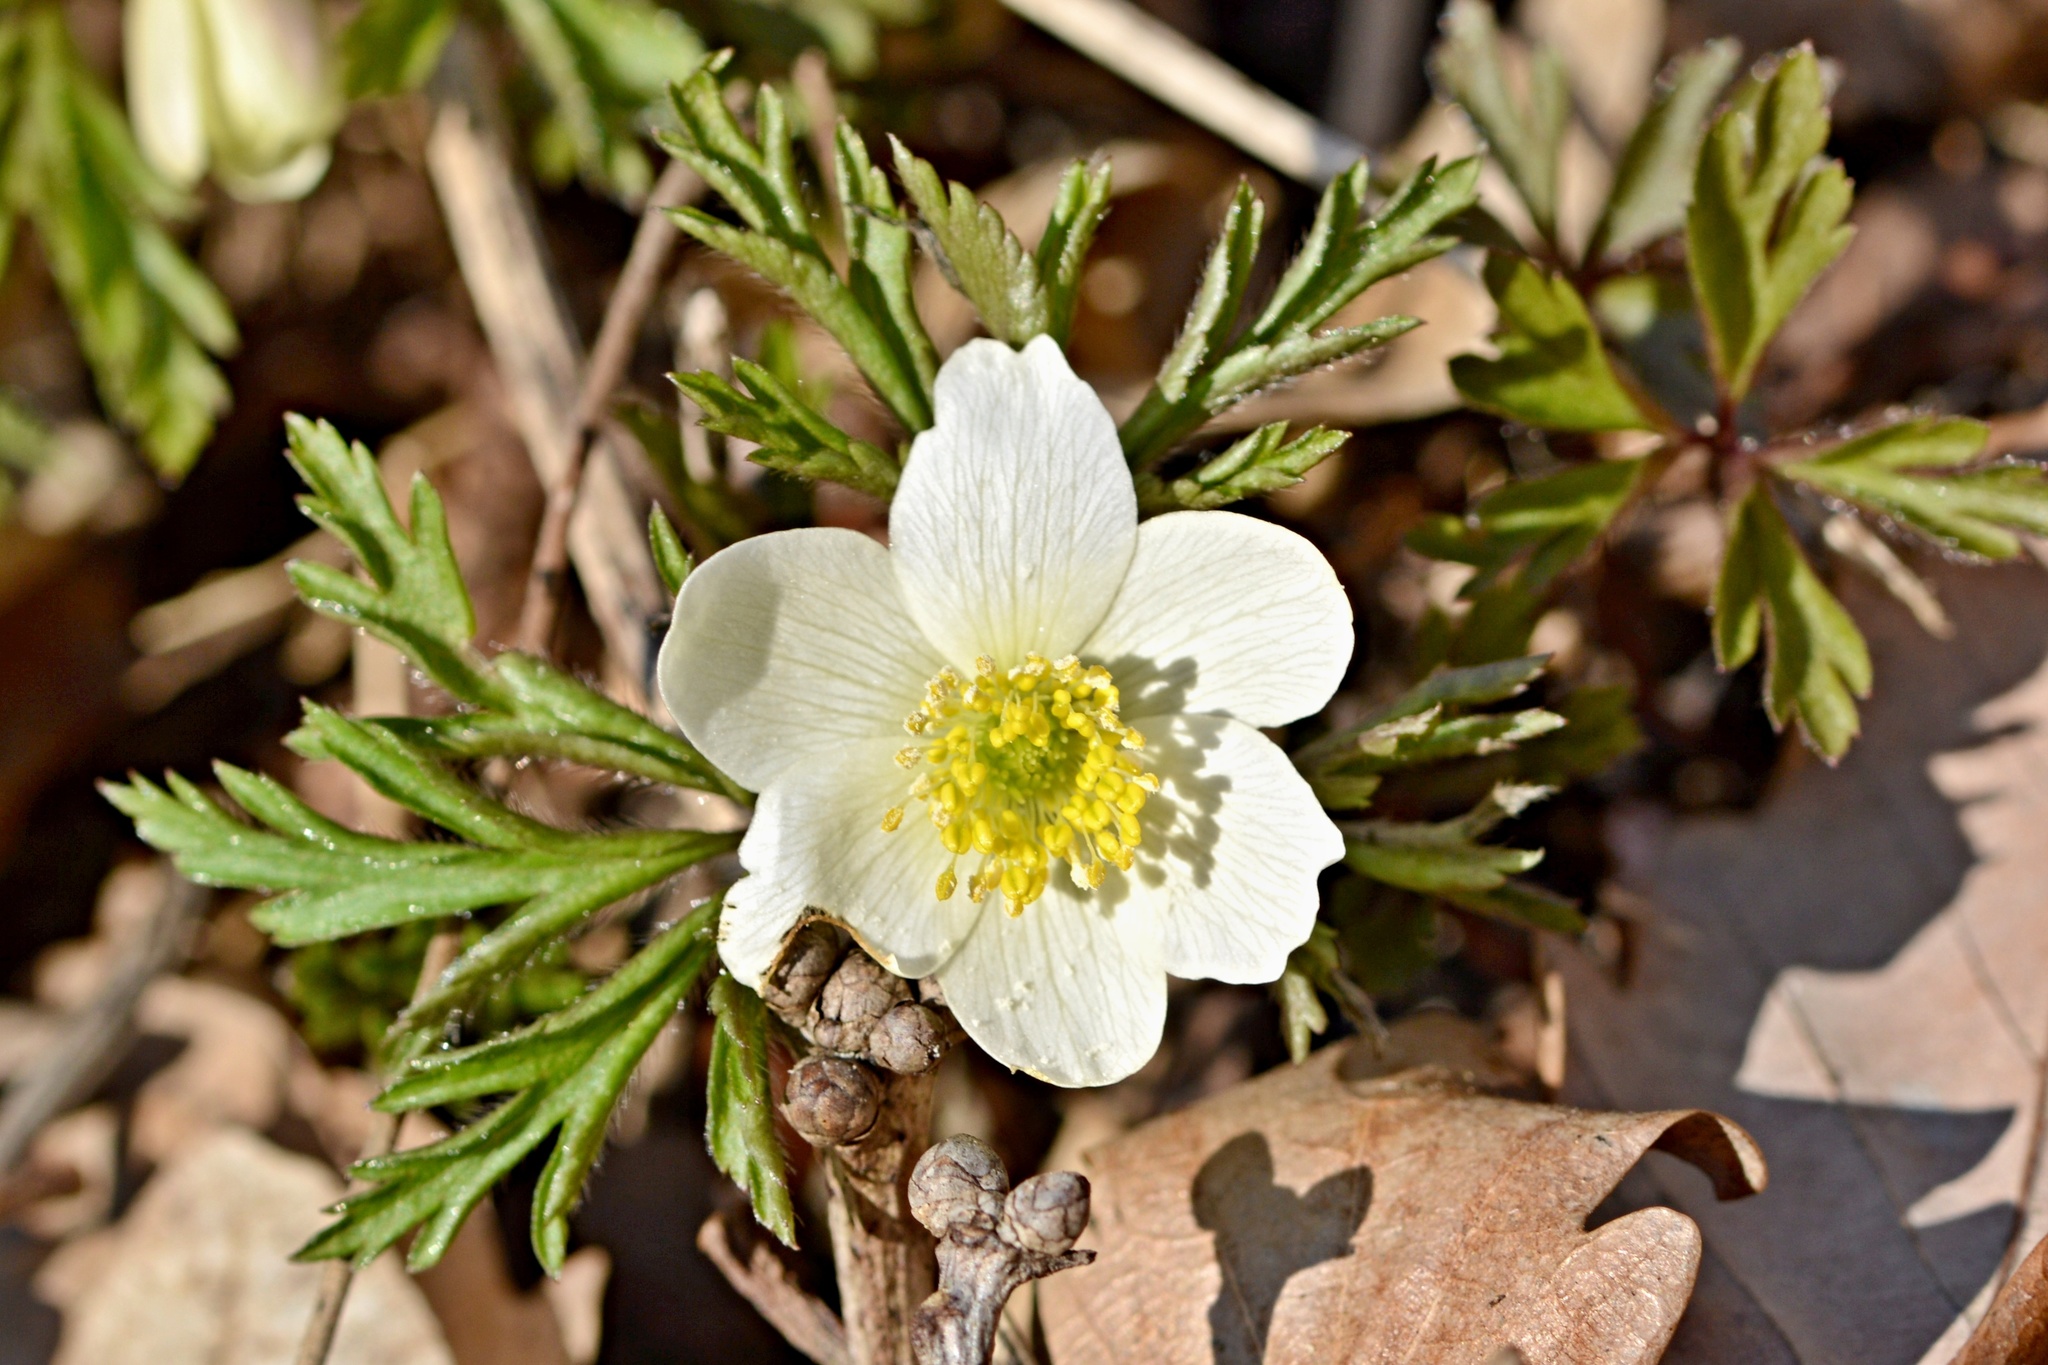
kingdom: Plantae
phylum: Tracheophyta
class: Magnoliopsida
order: Ranunculales
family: Ranunculaceae
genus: Anemone
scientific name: Anemone nemorosa
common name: Wood anemone
